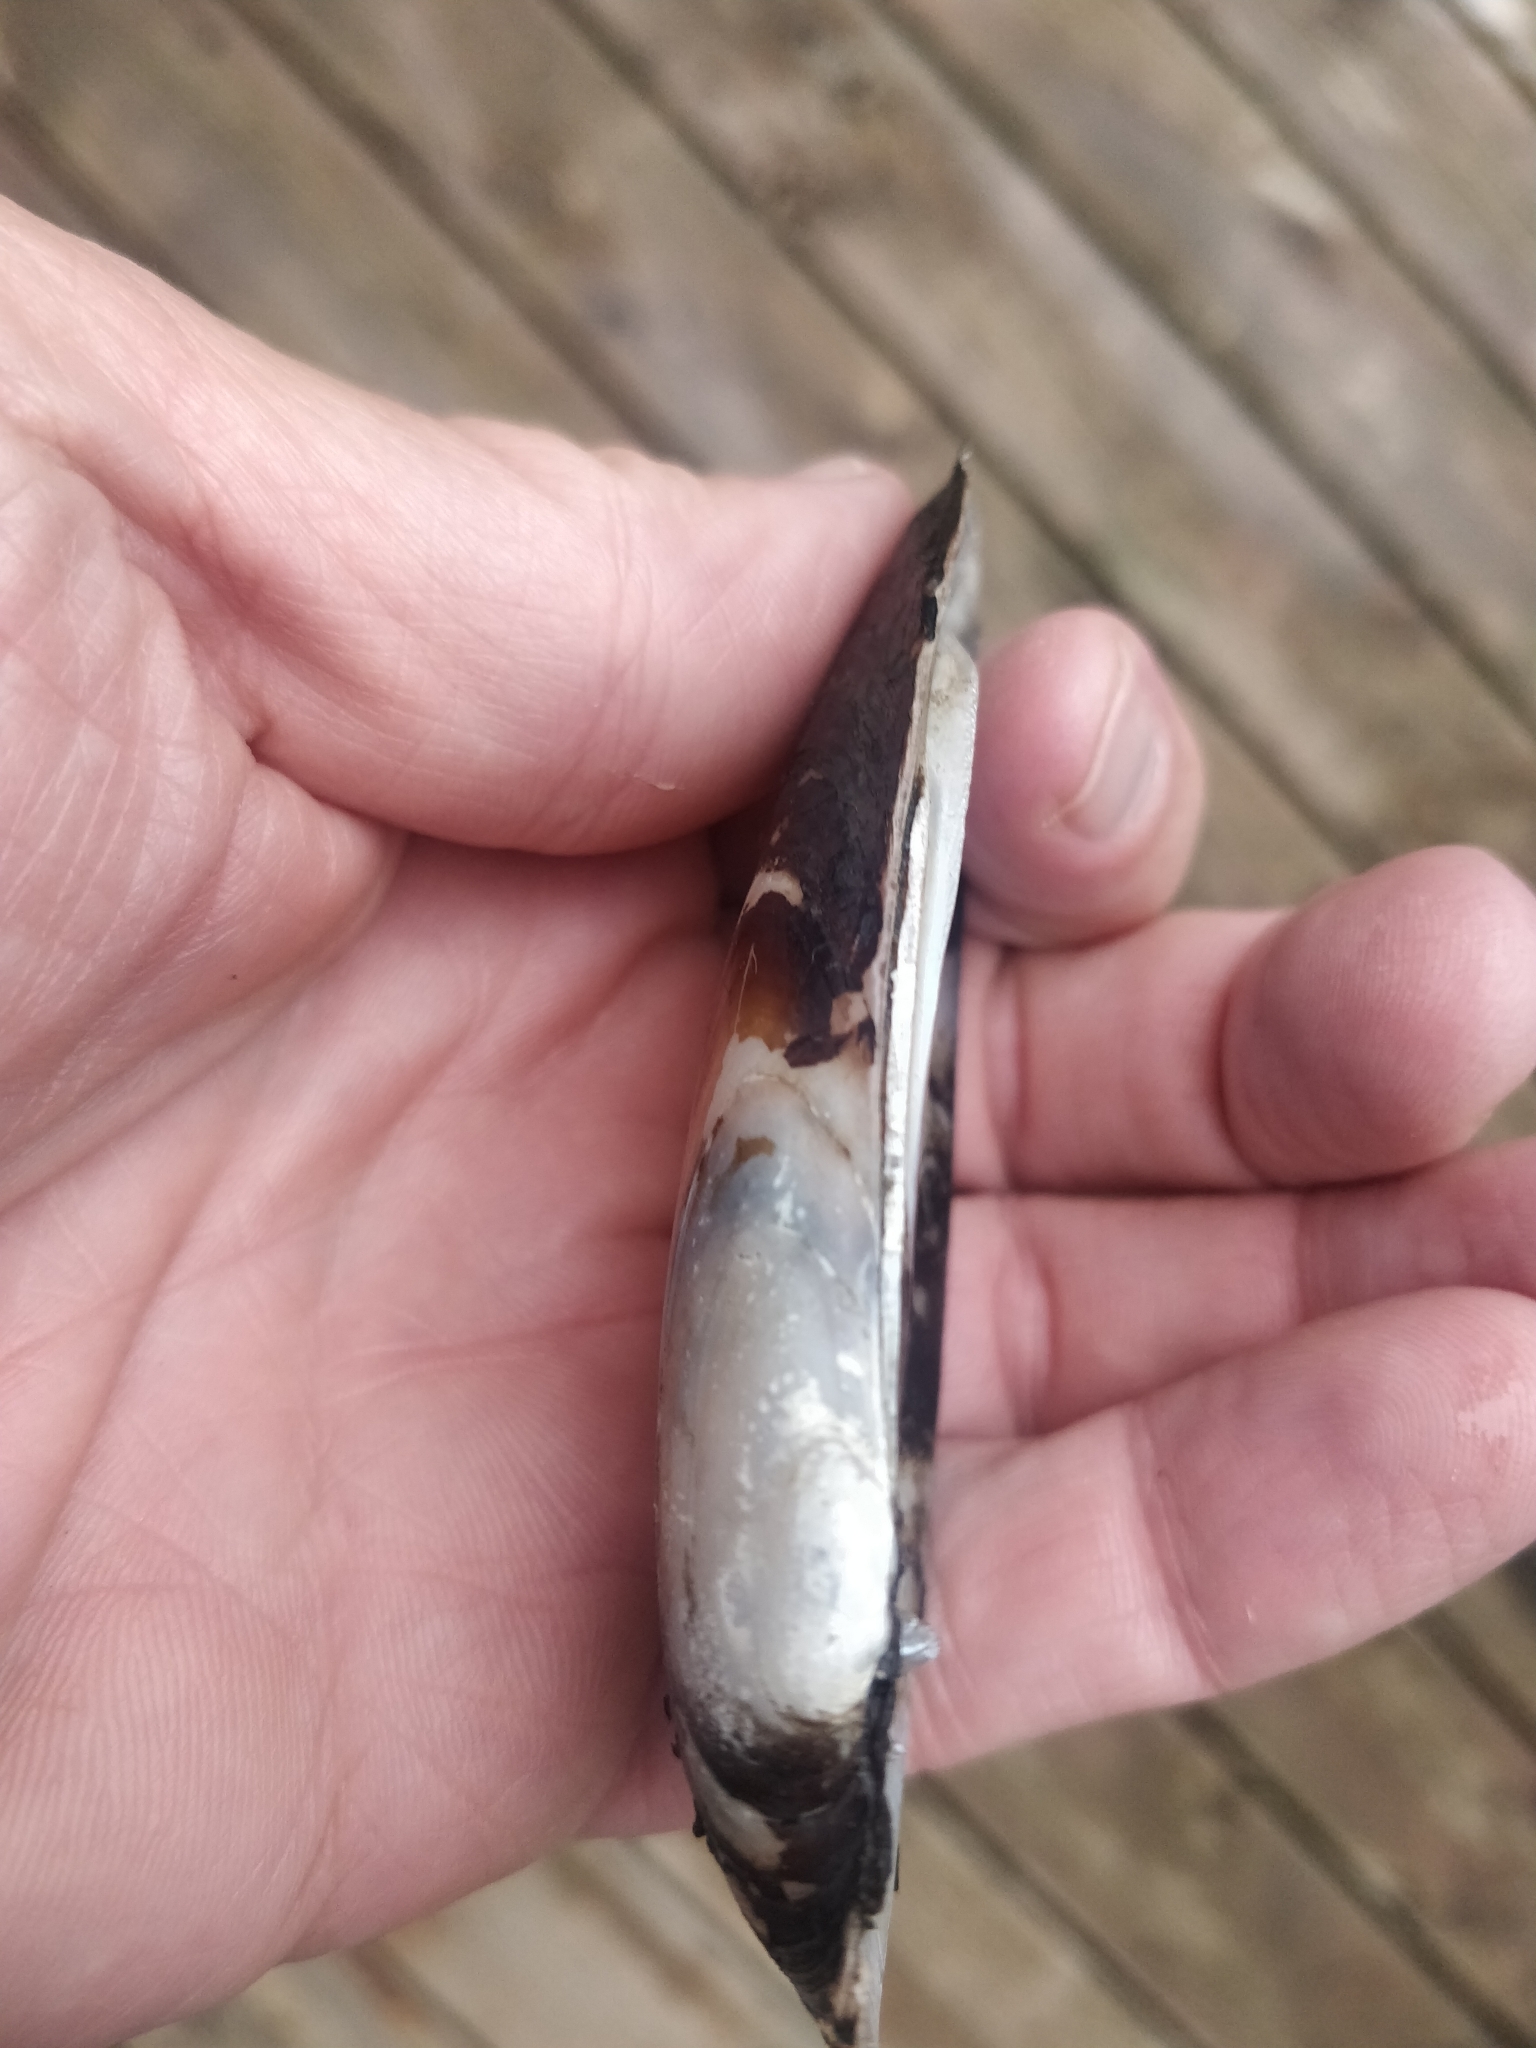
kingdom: Animalia
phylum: Mollusca
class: Bivalvia
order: Unionida
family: Unionidae
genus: Ligumia
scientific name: Ligumia recta
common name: Black sandshell
